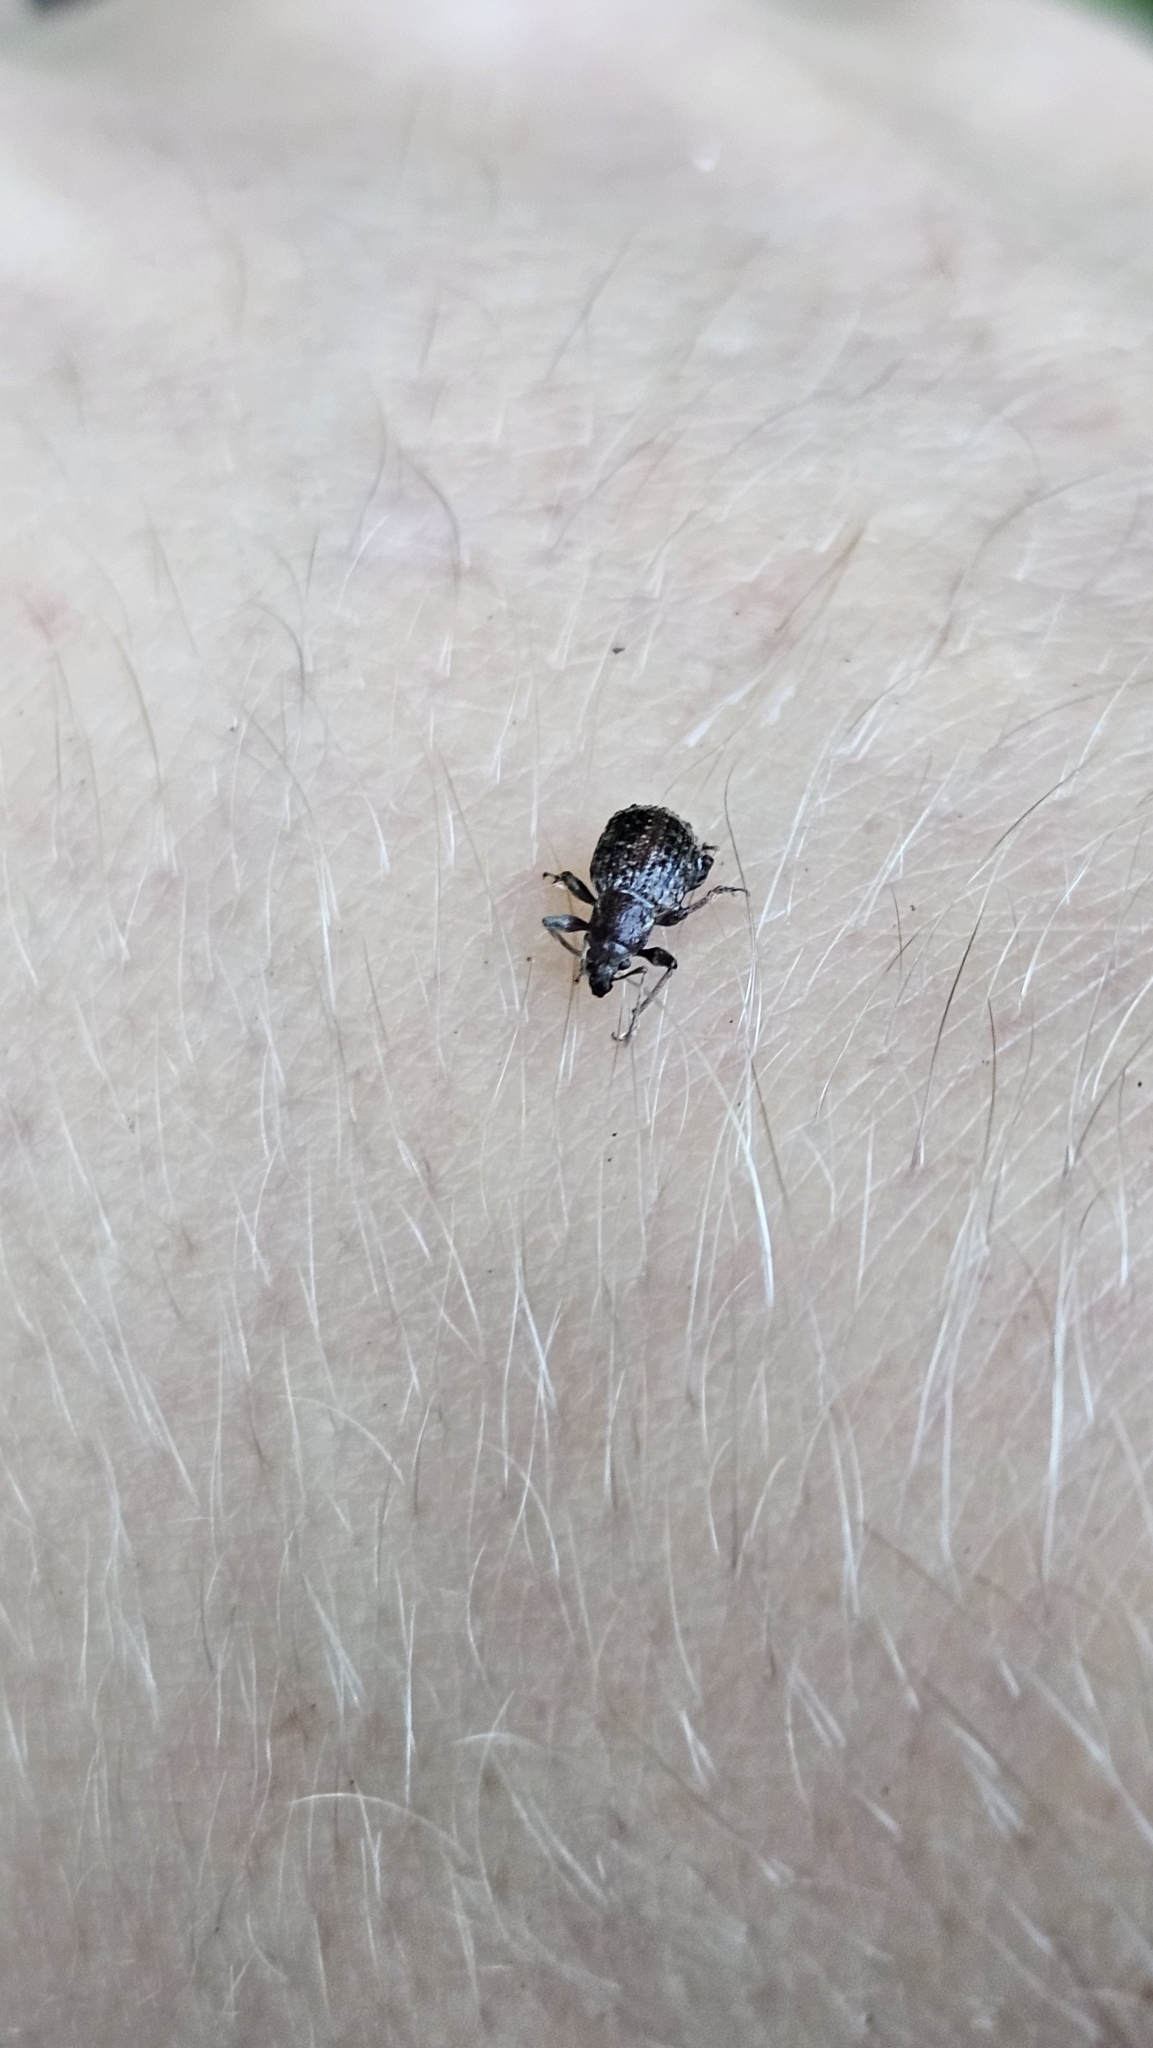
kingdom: Animalia
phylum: Arthropoda
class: Insecta
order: Coleoptera
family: Curculionidae
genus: Phlyctinus
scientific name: Phlyctinus callosus
